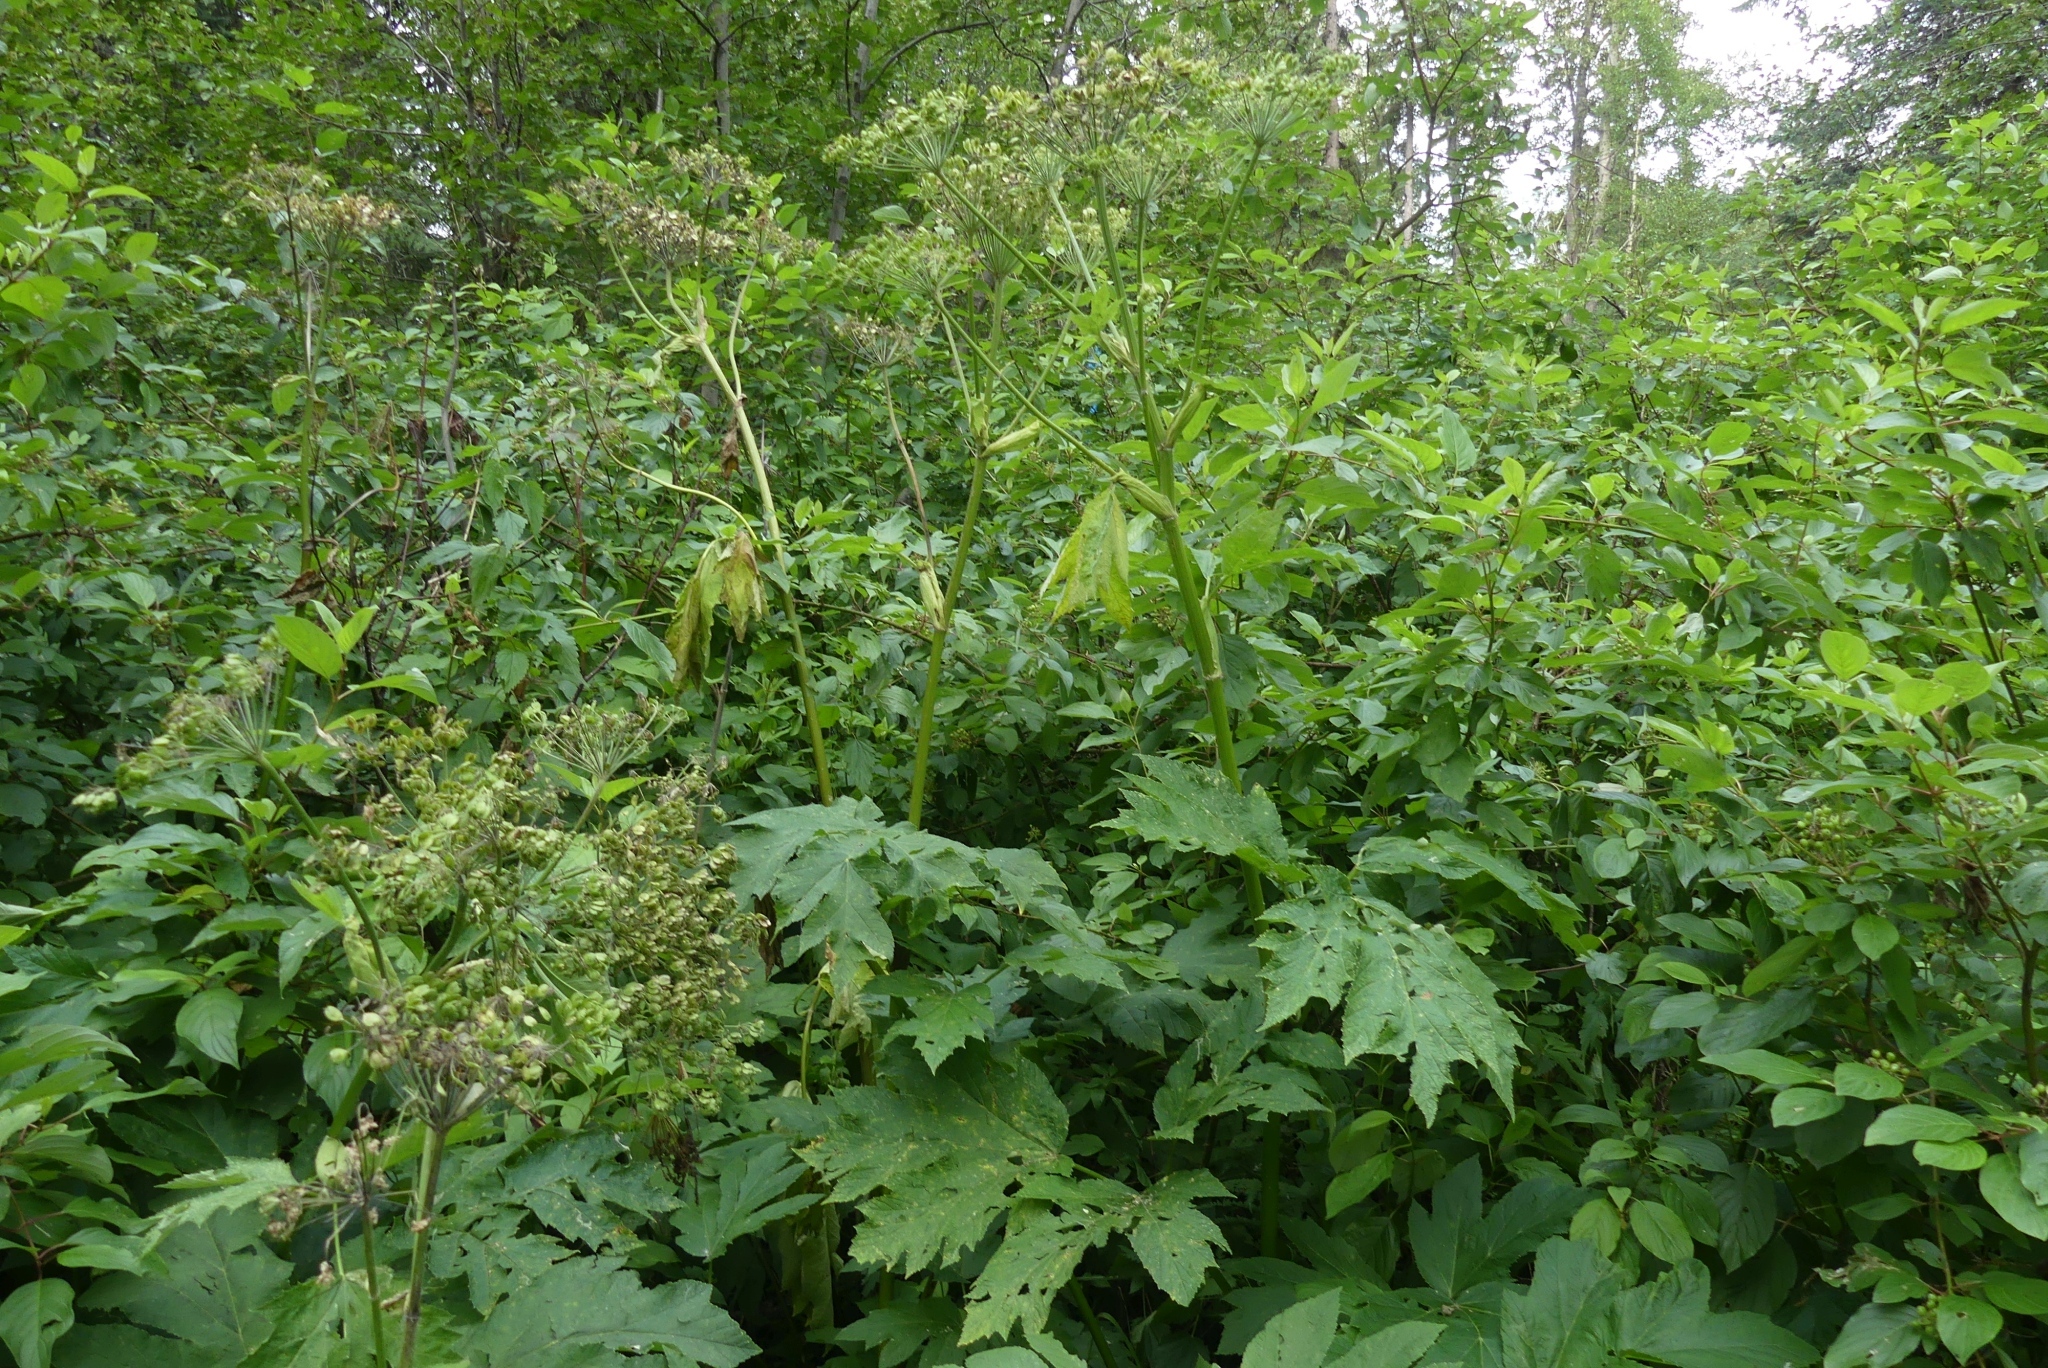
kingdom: Plantae
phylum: Tracheophyta
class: Magnoliopsida
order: Apiales
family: Apiaceae
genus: Heracleum
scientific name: Heracleum maximum
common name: American cow parsnip
